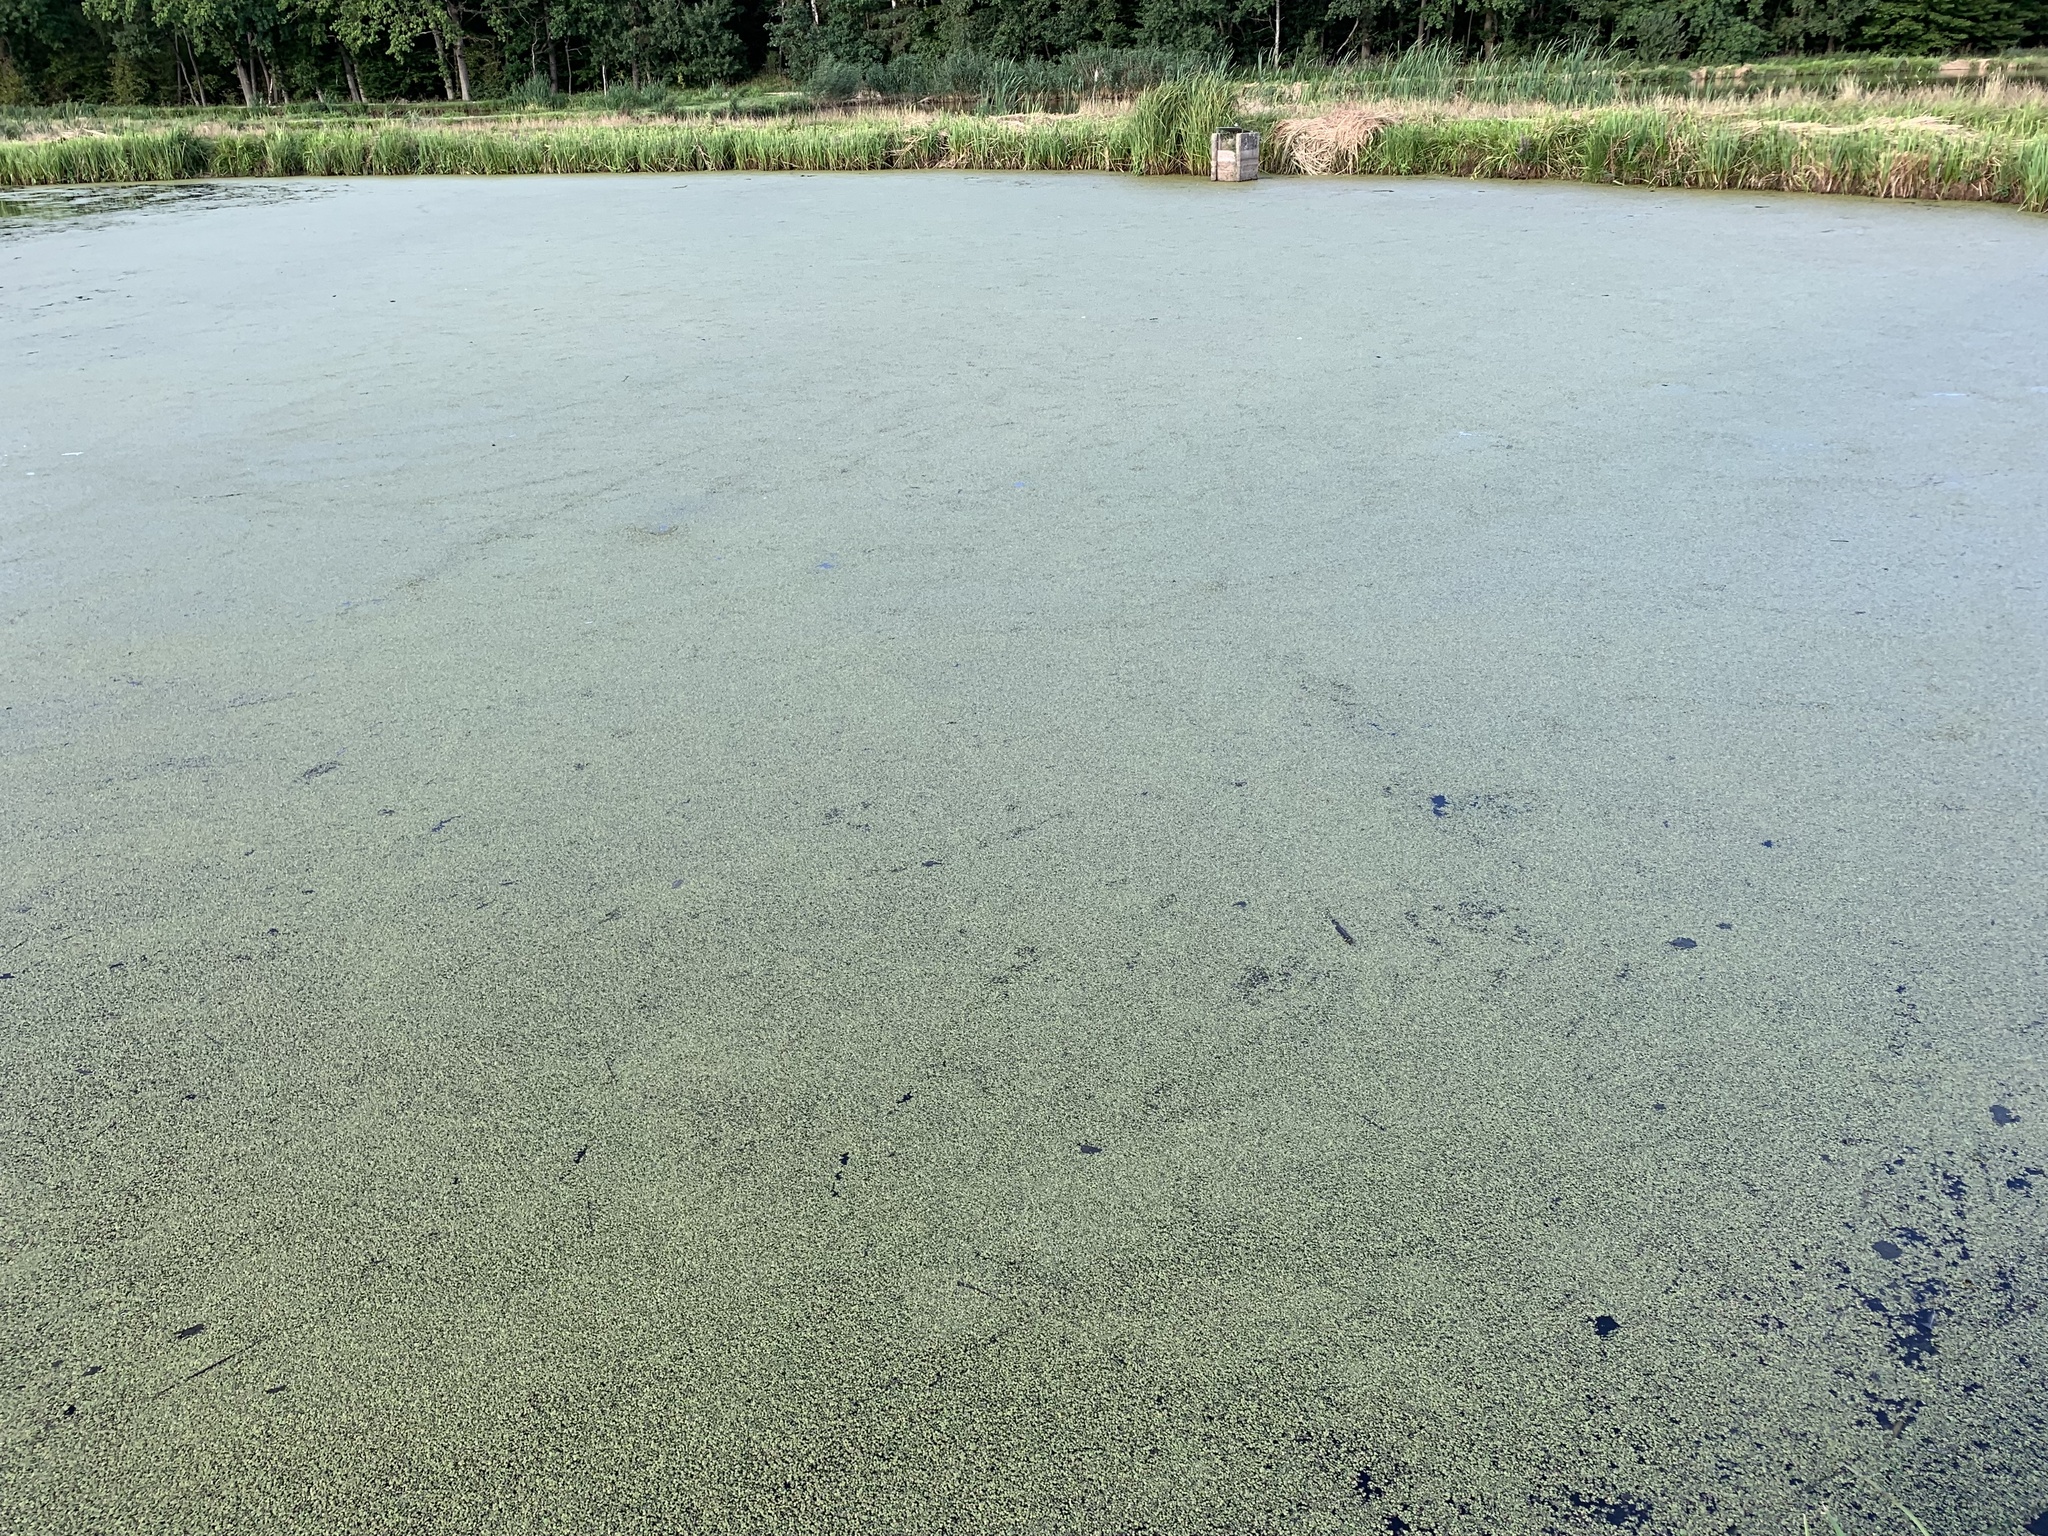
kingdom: Plantae
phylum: Tracheophyta
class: Liliopsida
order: Alismatales
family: Araceae
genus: Spirodela
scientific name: Spirodela polyrhiza
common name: Great duckweed
